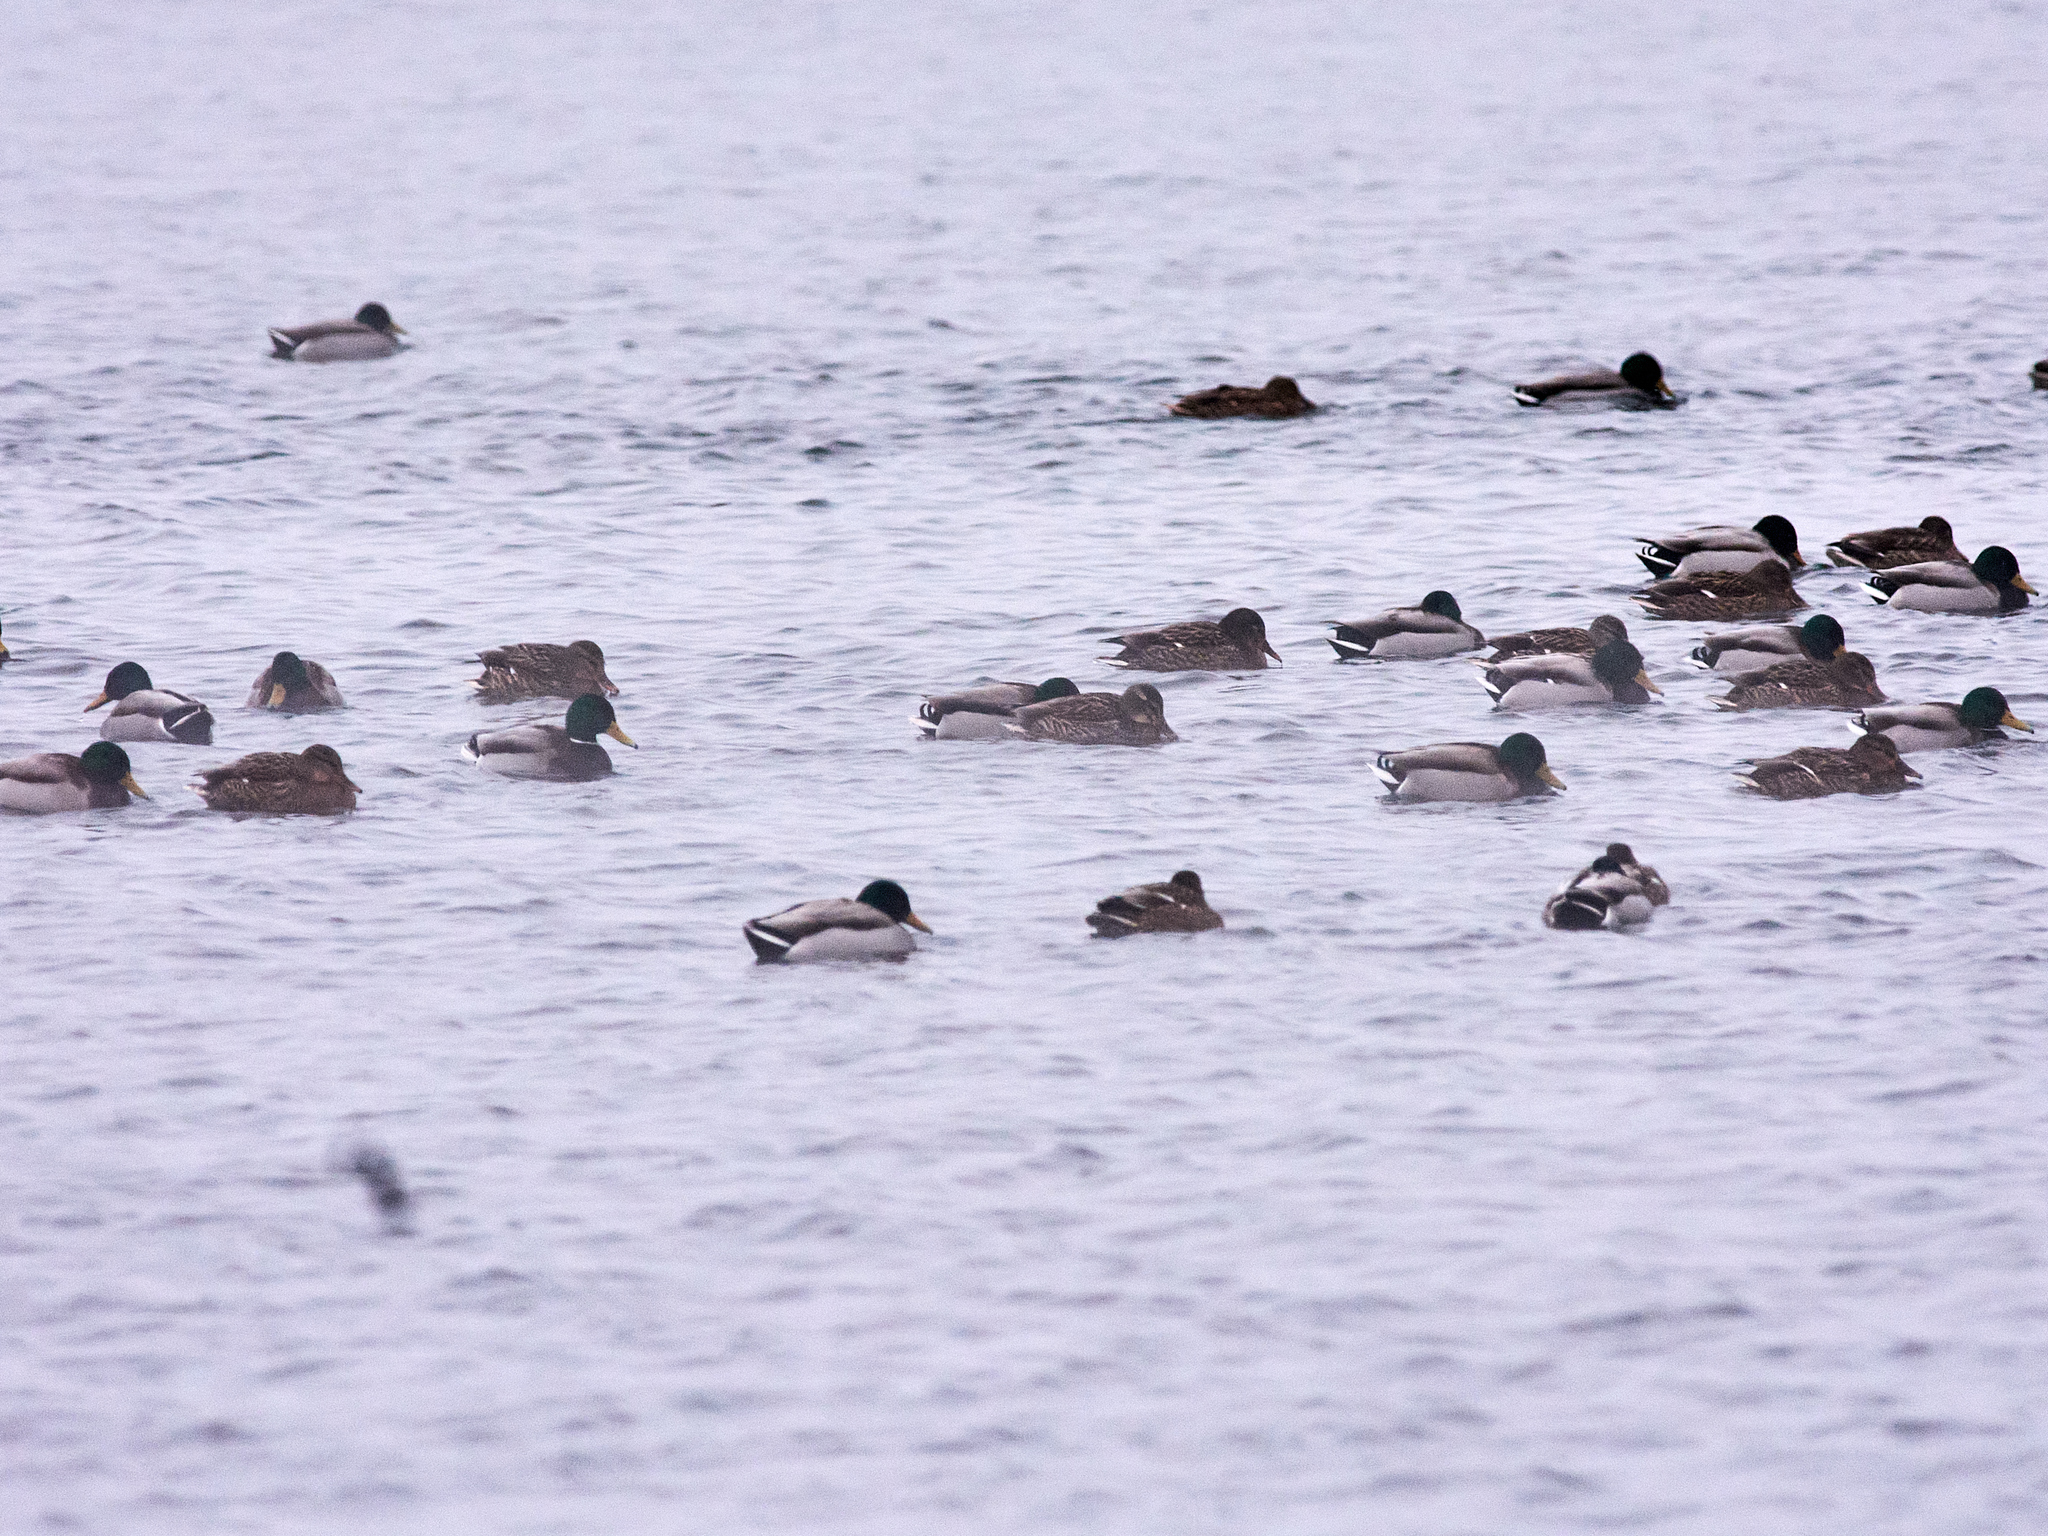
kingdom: Animalia
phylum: Chordata
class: Aves
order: Anseriformes
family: Anatidae
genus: Anas
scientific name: Anas platyrhynchos
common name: Mallard
